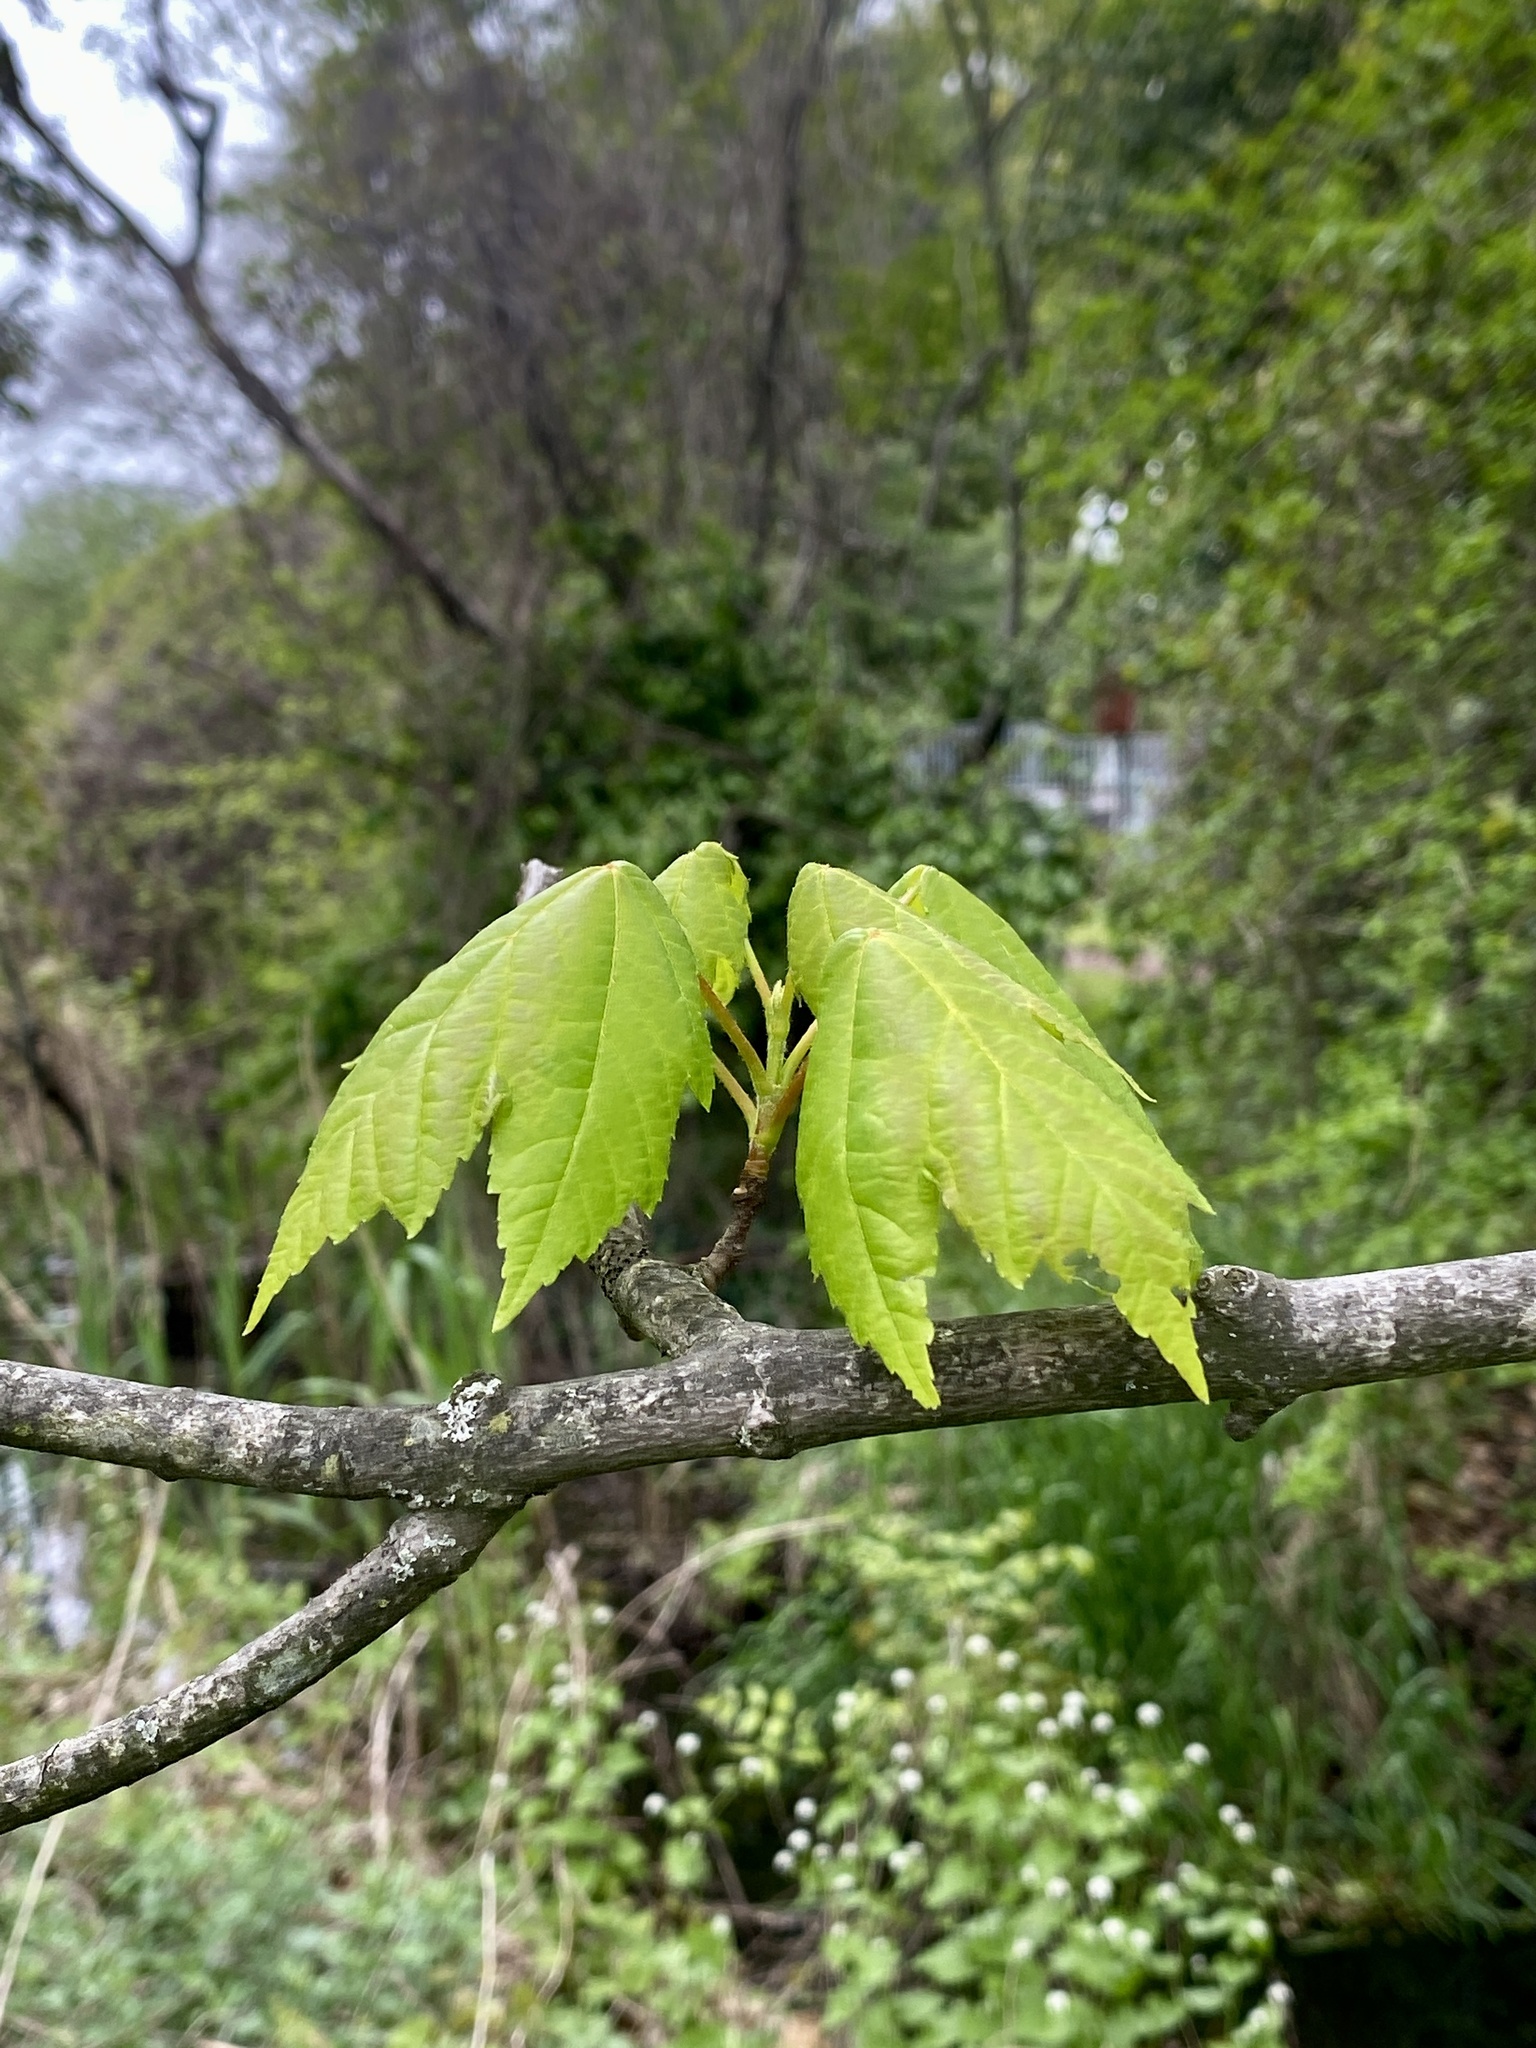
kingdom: Plantae
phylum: Tracheophyta
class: Magnoliopsida
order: Sapindales
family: Sapindaceae
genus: Acer
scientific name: Acer rubrum
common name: Red maple
